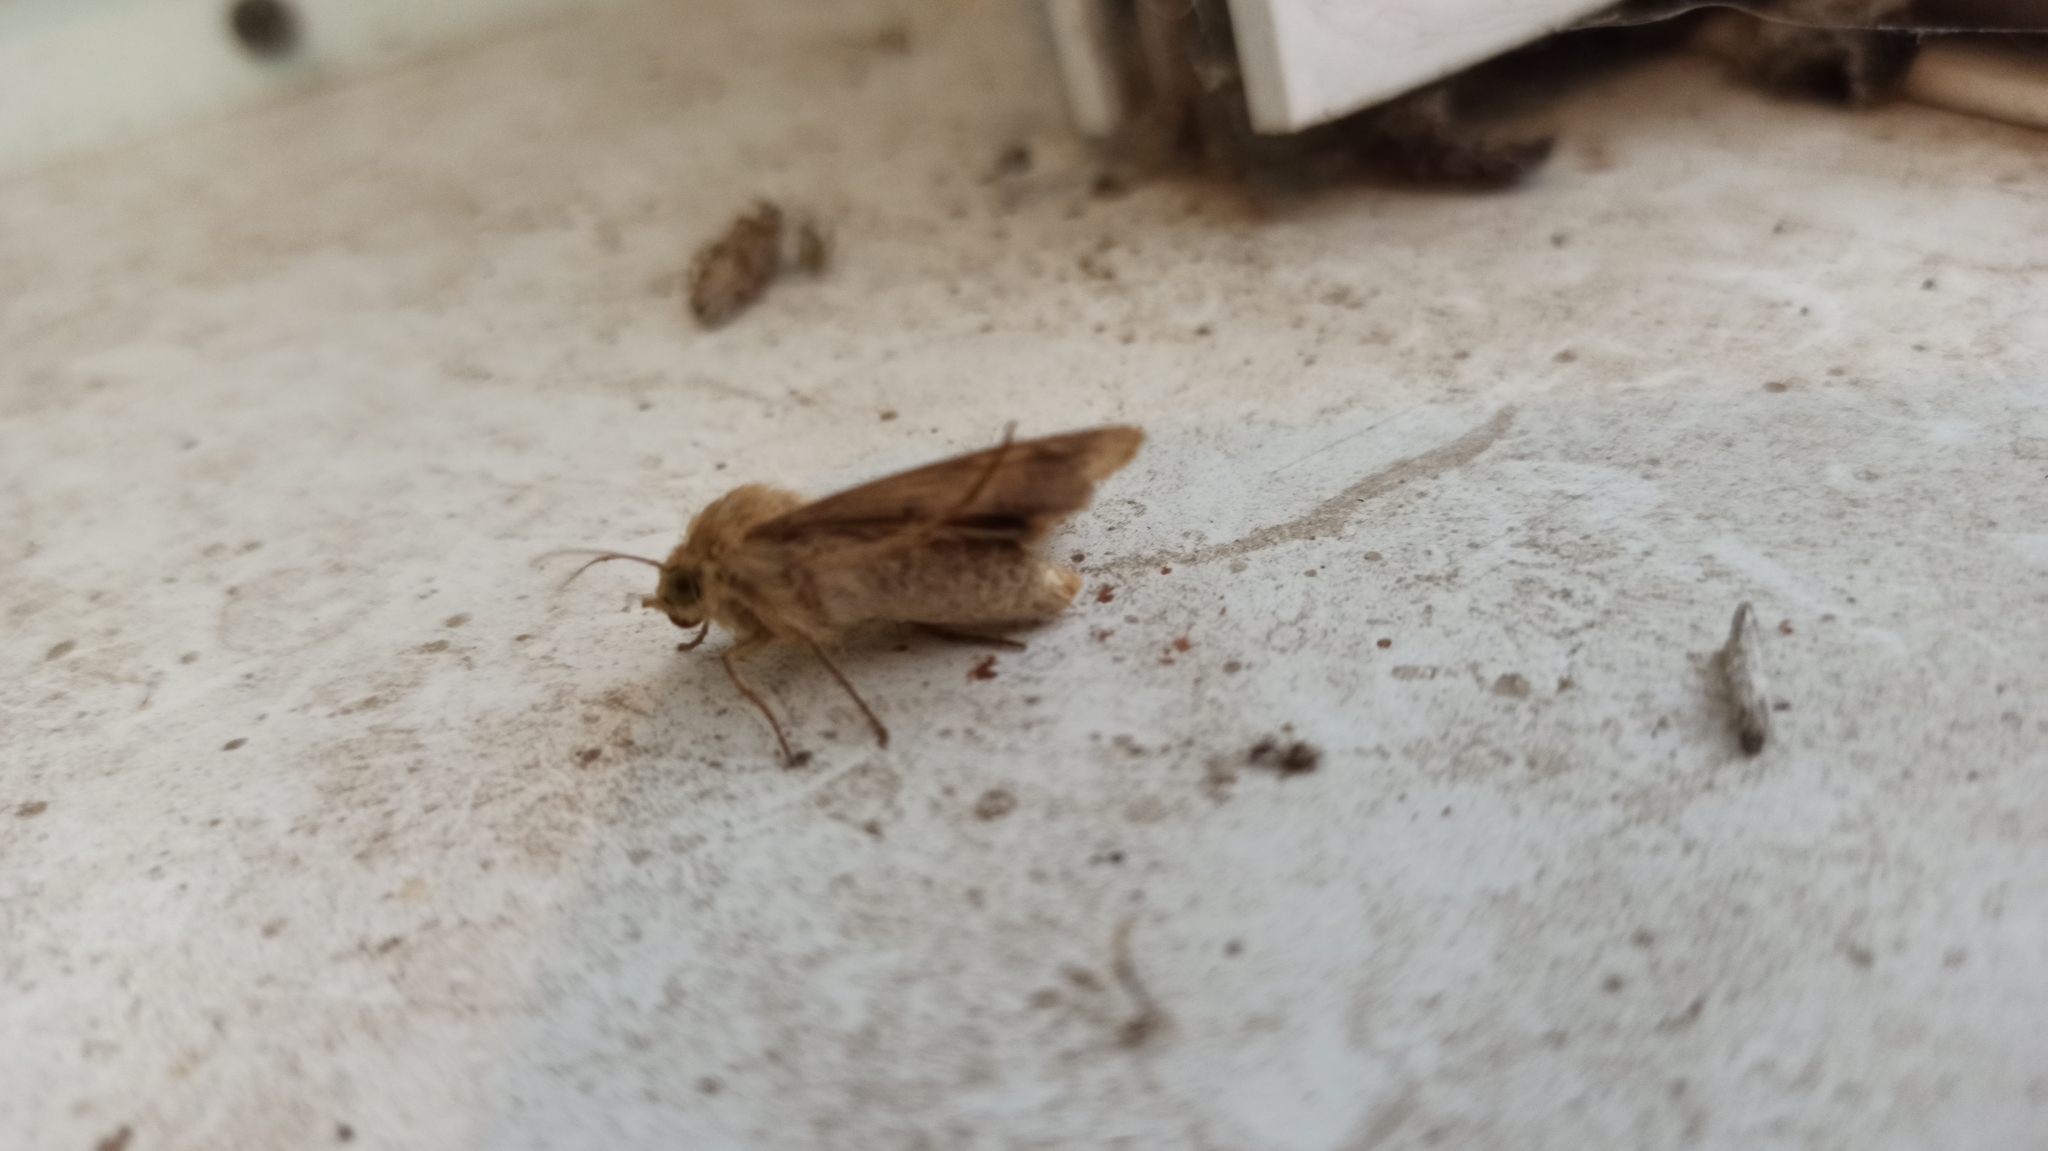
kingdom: Animalia
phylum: Arthropoda
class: Insecta
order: Lepidoptera
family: Noctuidae
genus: Helicoverpa
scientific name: Helicoverpa armigera
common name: Cotton bollworm
